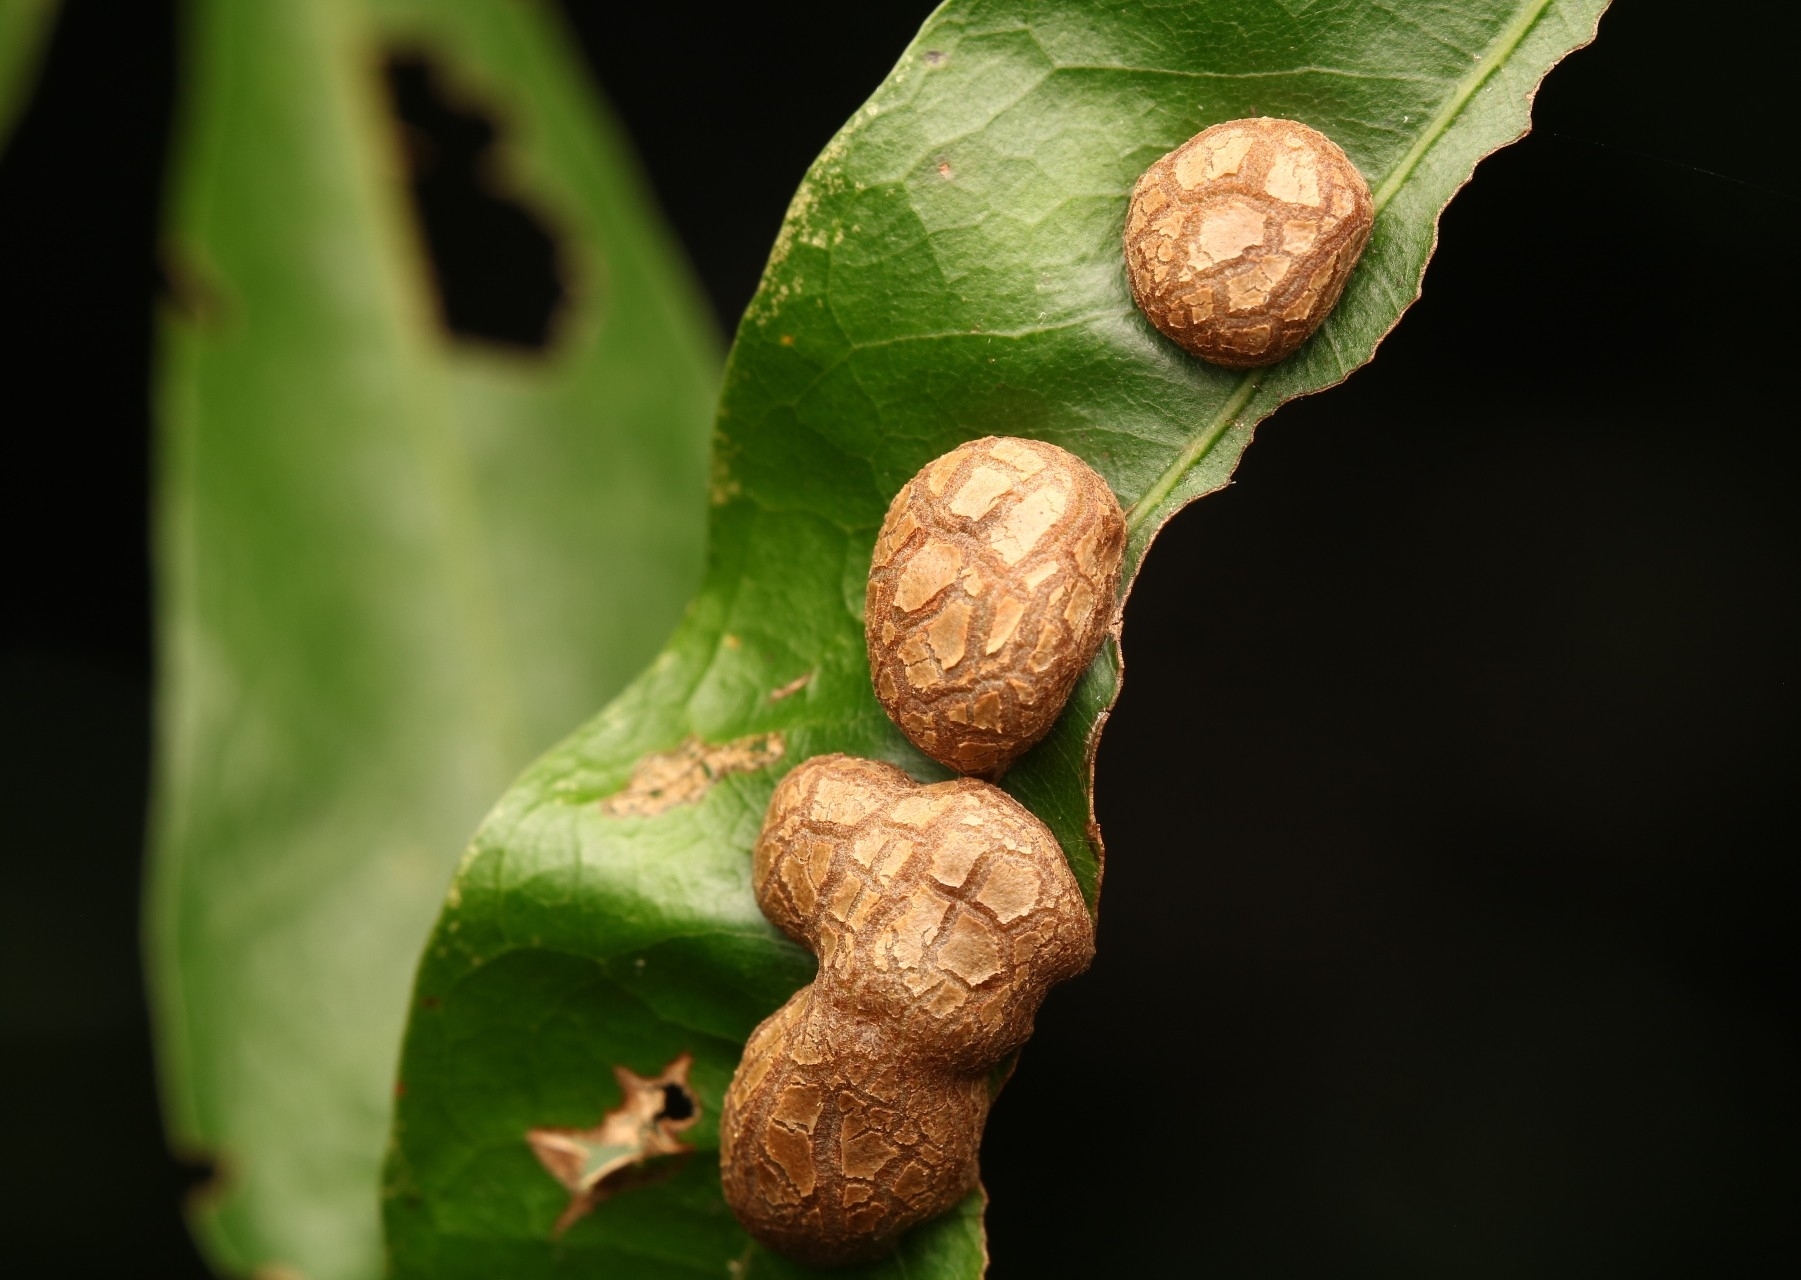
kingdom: Animalia
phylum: Arthropoda
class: Insecta
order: Diptera
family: Cecidomyiidae
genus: Polystepha
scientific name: Polystepha pilulae
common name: Oak leaf gall midge
